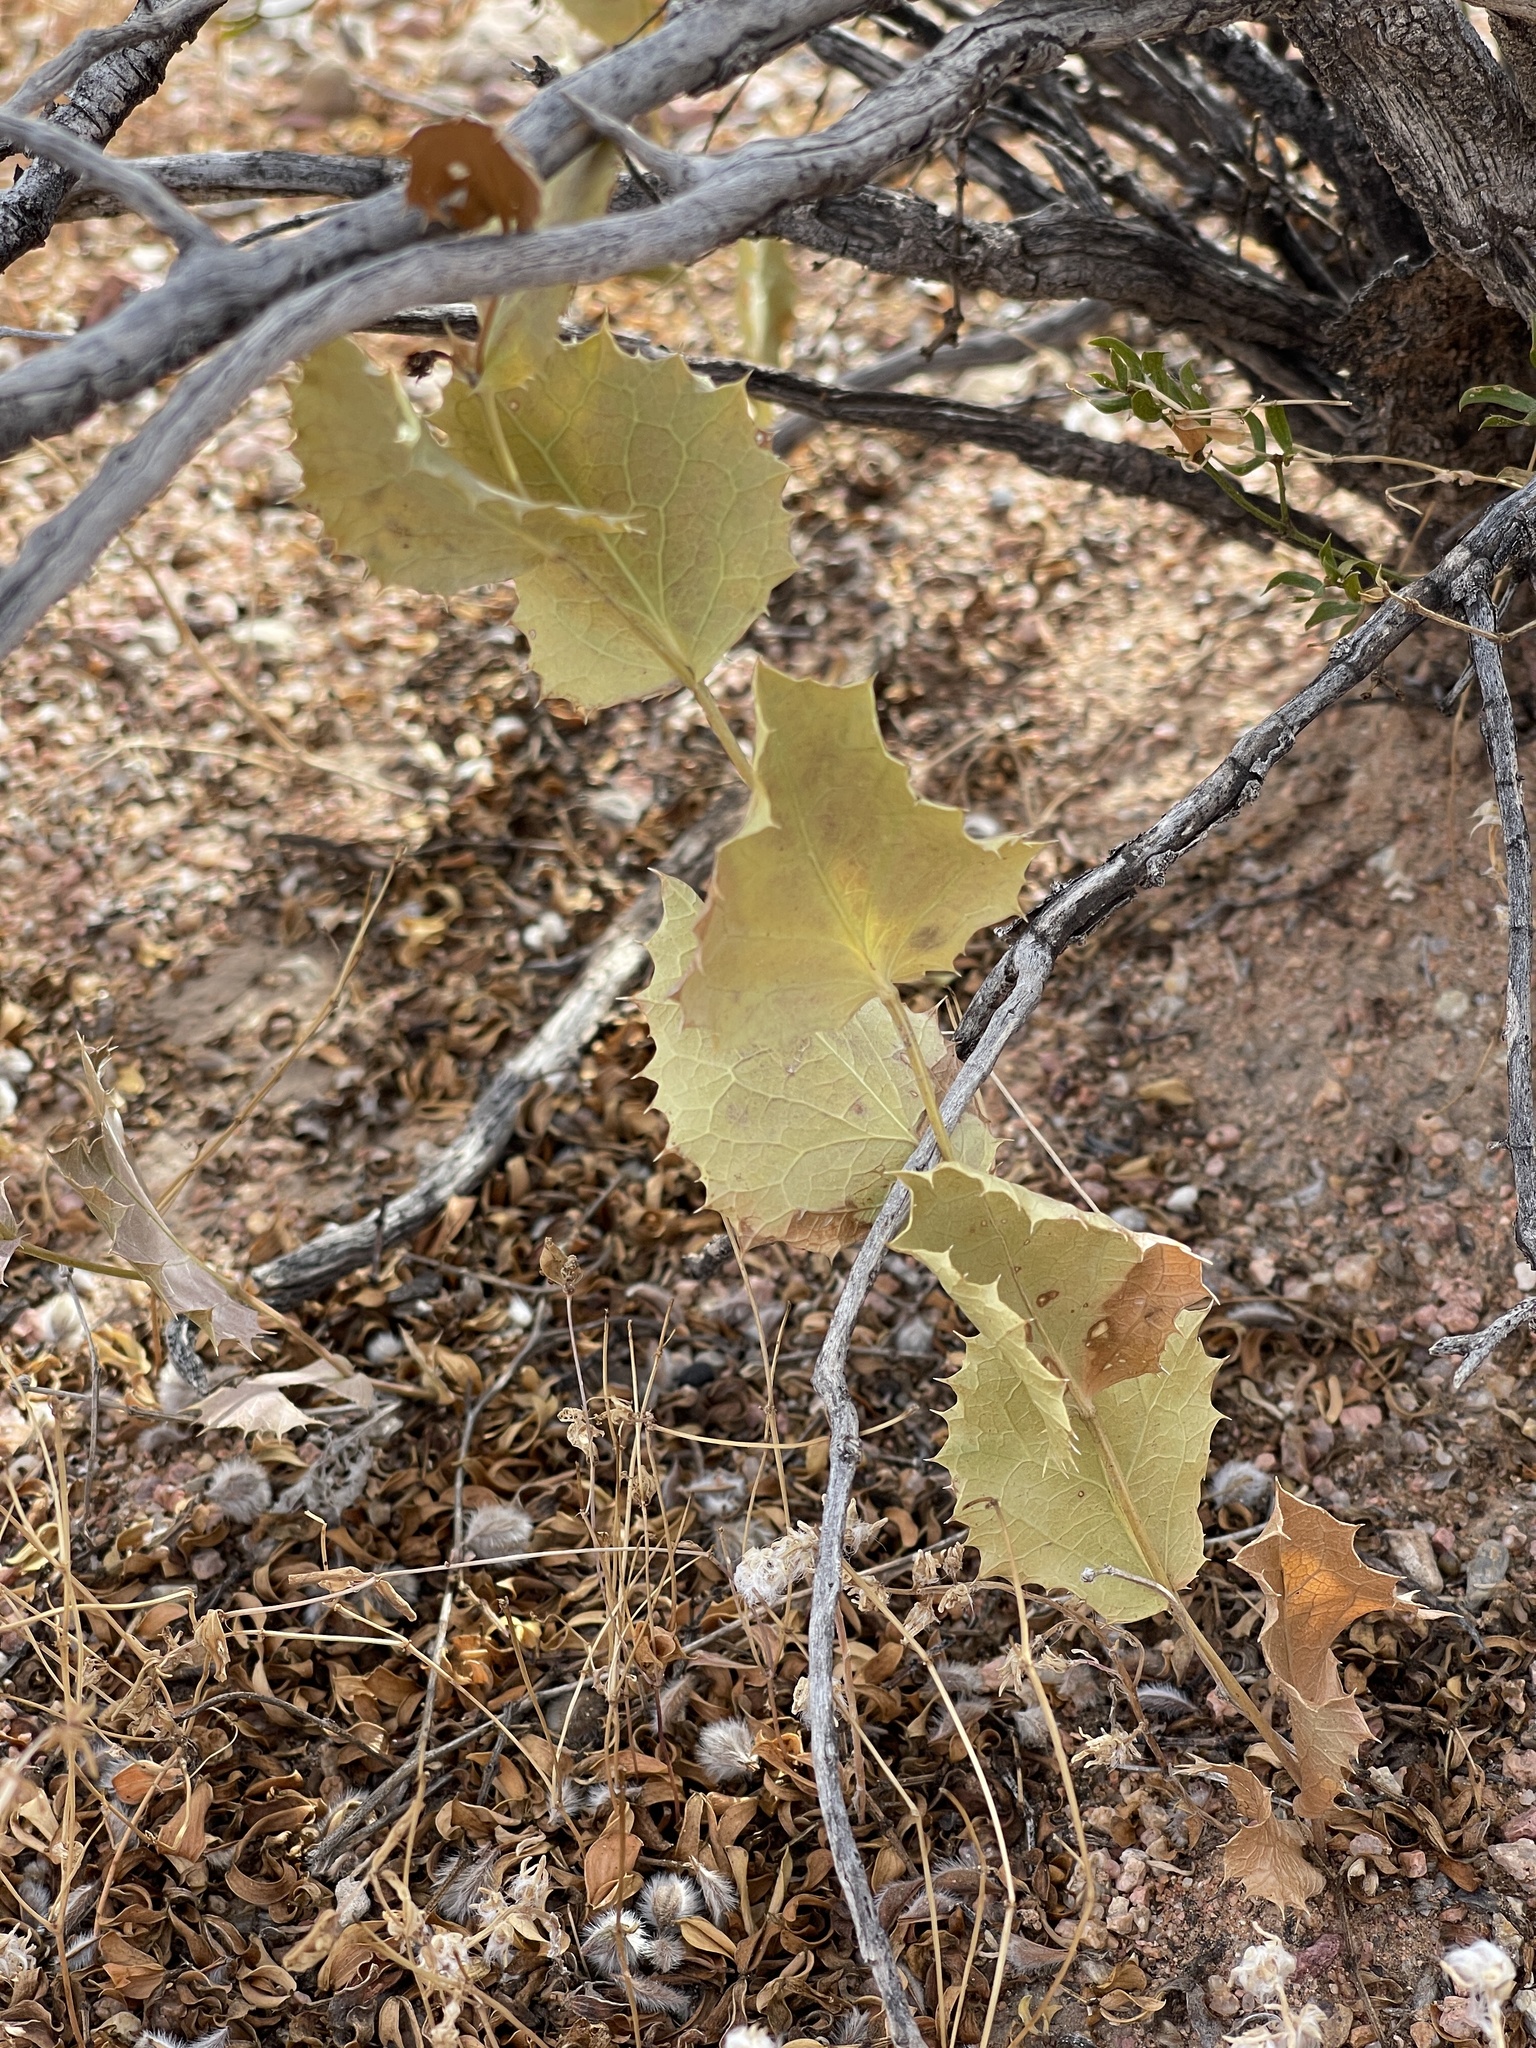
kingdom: Plantae
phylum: Tracheophyta
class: Magnoliopsida
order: Asterales
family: Asteraceae
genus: Acourtia
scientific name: Acourtia nana
